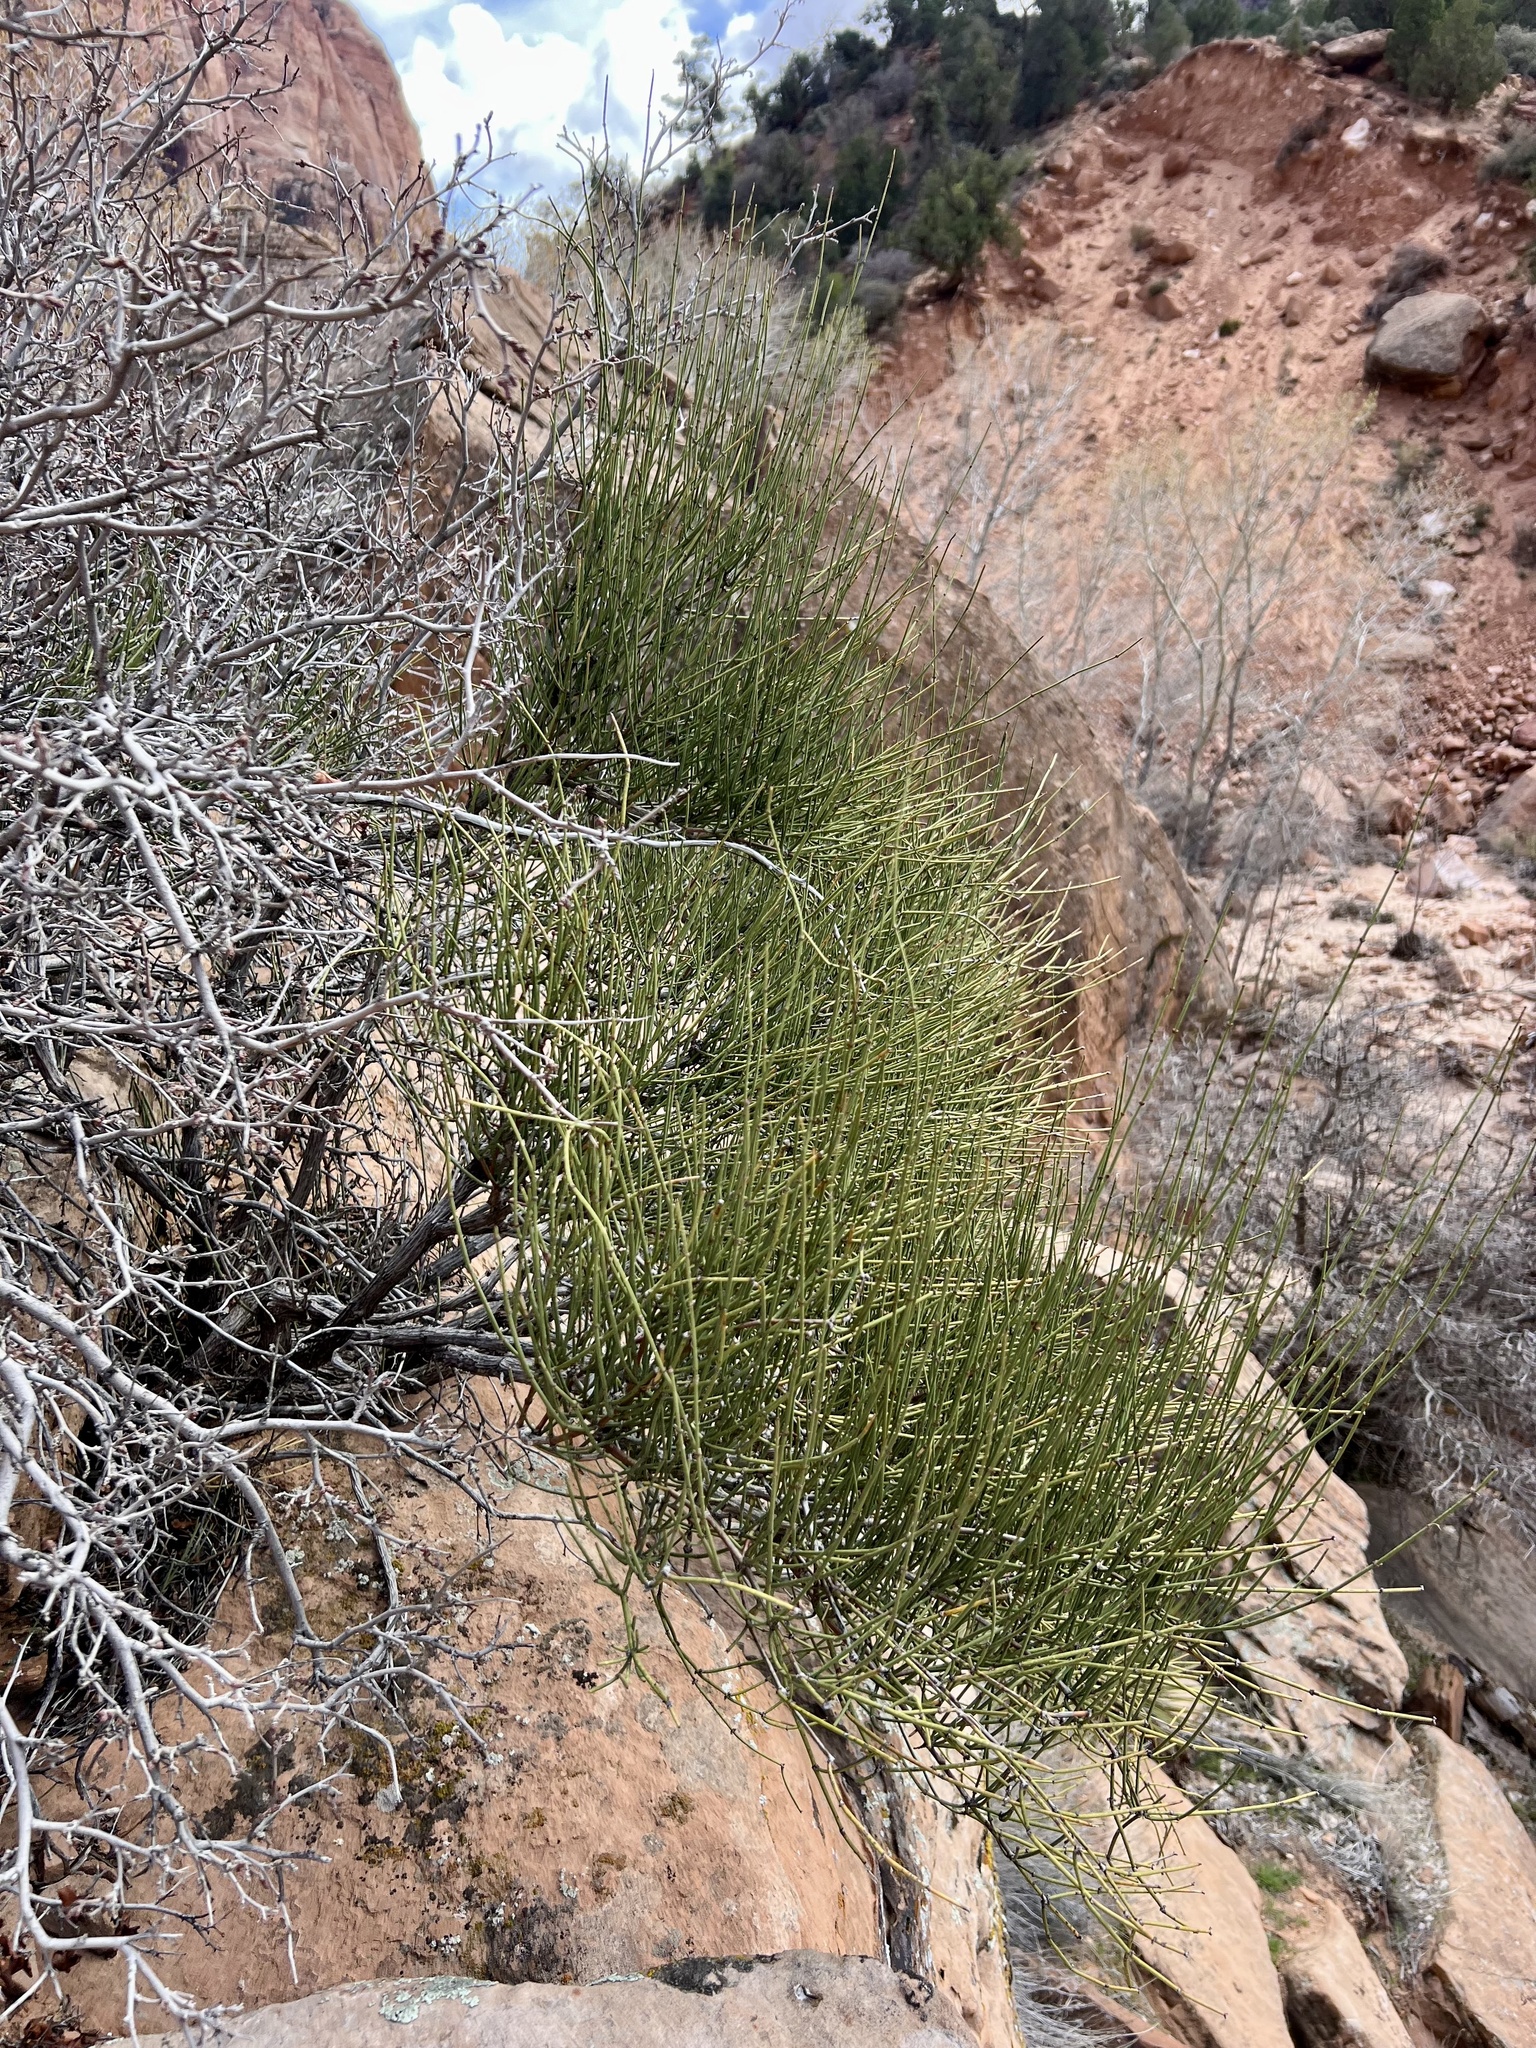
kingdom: Plantae
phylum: Tracheophyta
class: Gnetopsida
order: Ephedrales
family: Ephedraceae
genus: Ephedra
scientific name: Ephedra viridis
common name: Green ephedra
